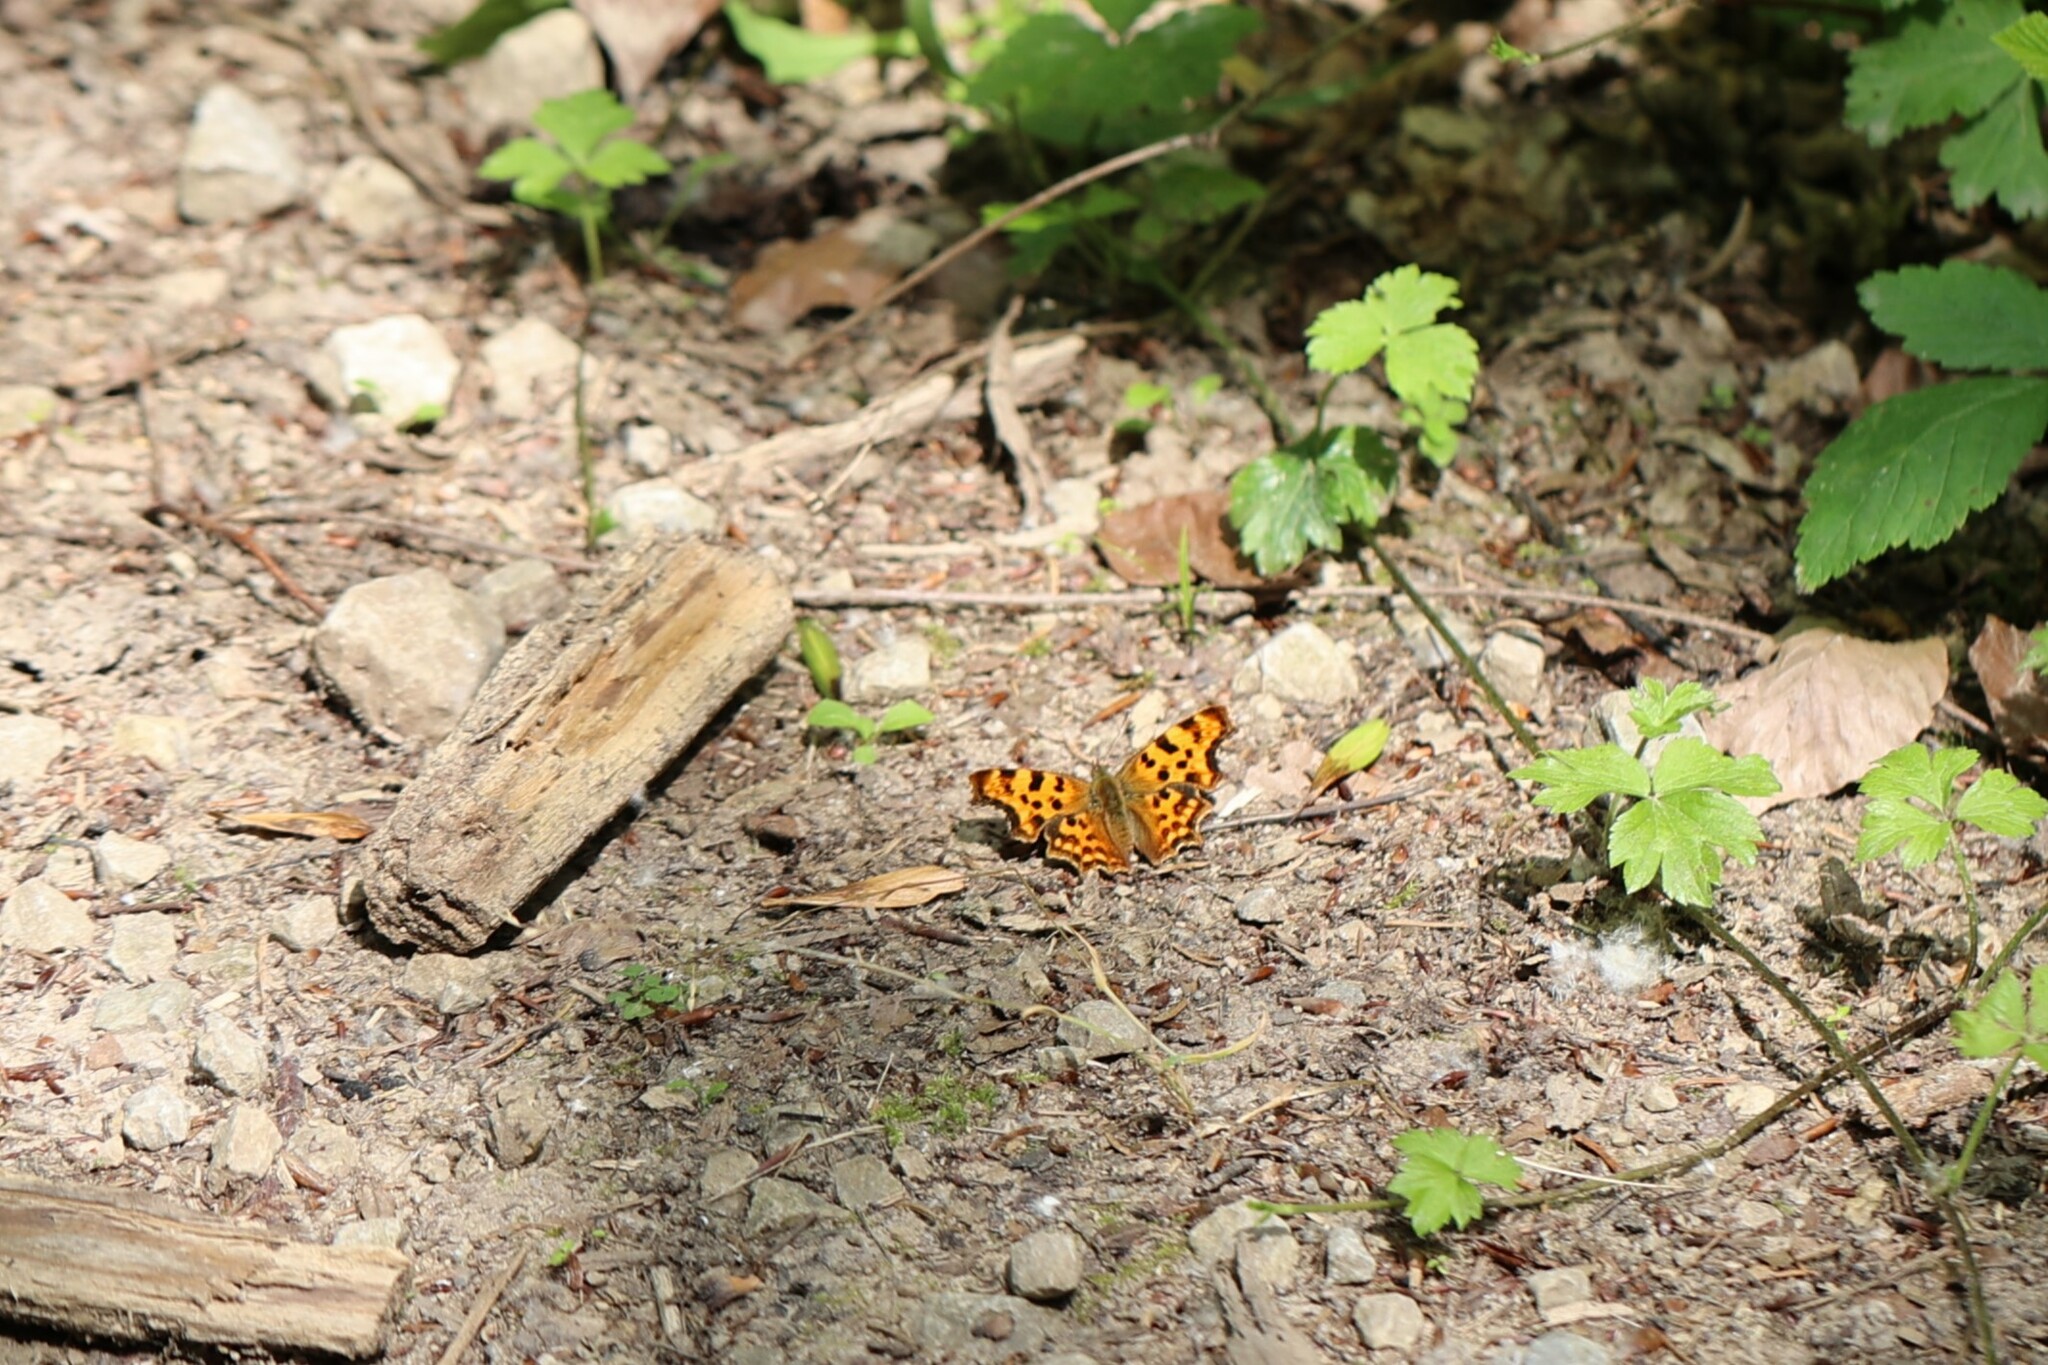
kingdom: Animalia
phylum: Arthropoda
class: Insecta
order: Lepidoptera
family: Nymphalidae
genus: Polygonia
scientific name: Polygonia c-album
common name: Comma
